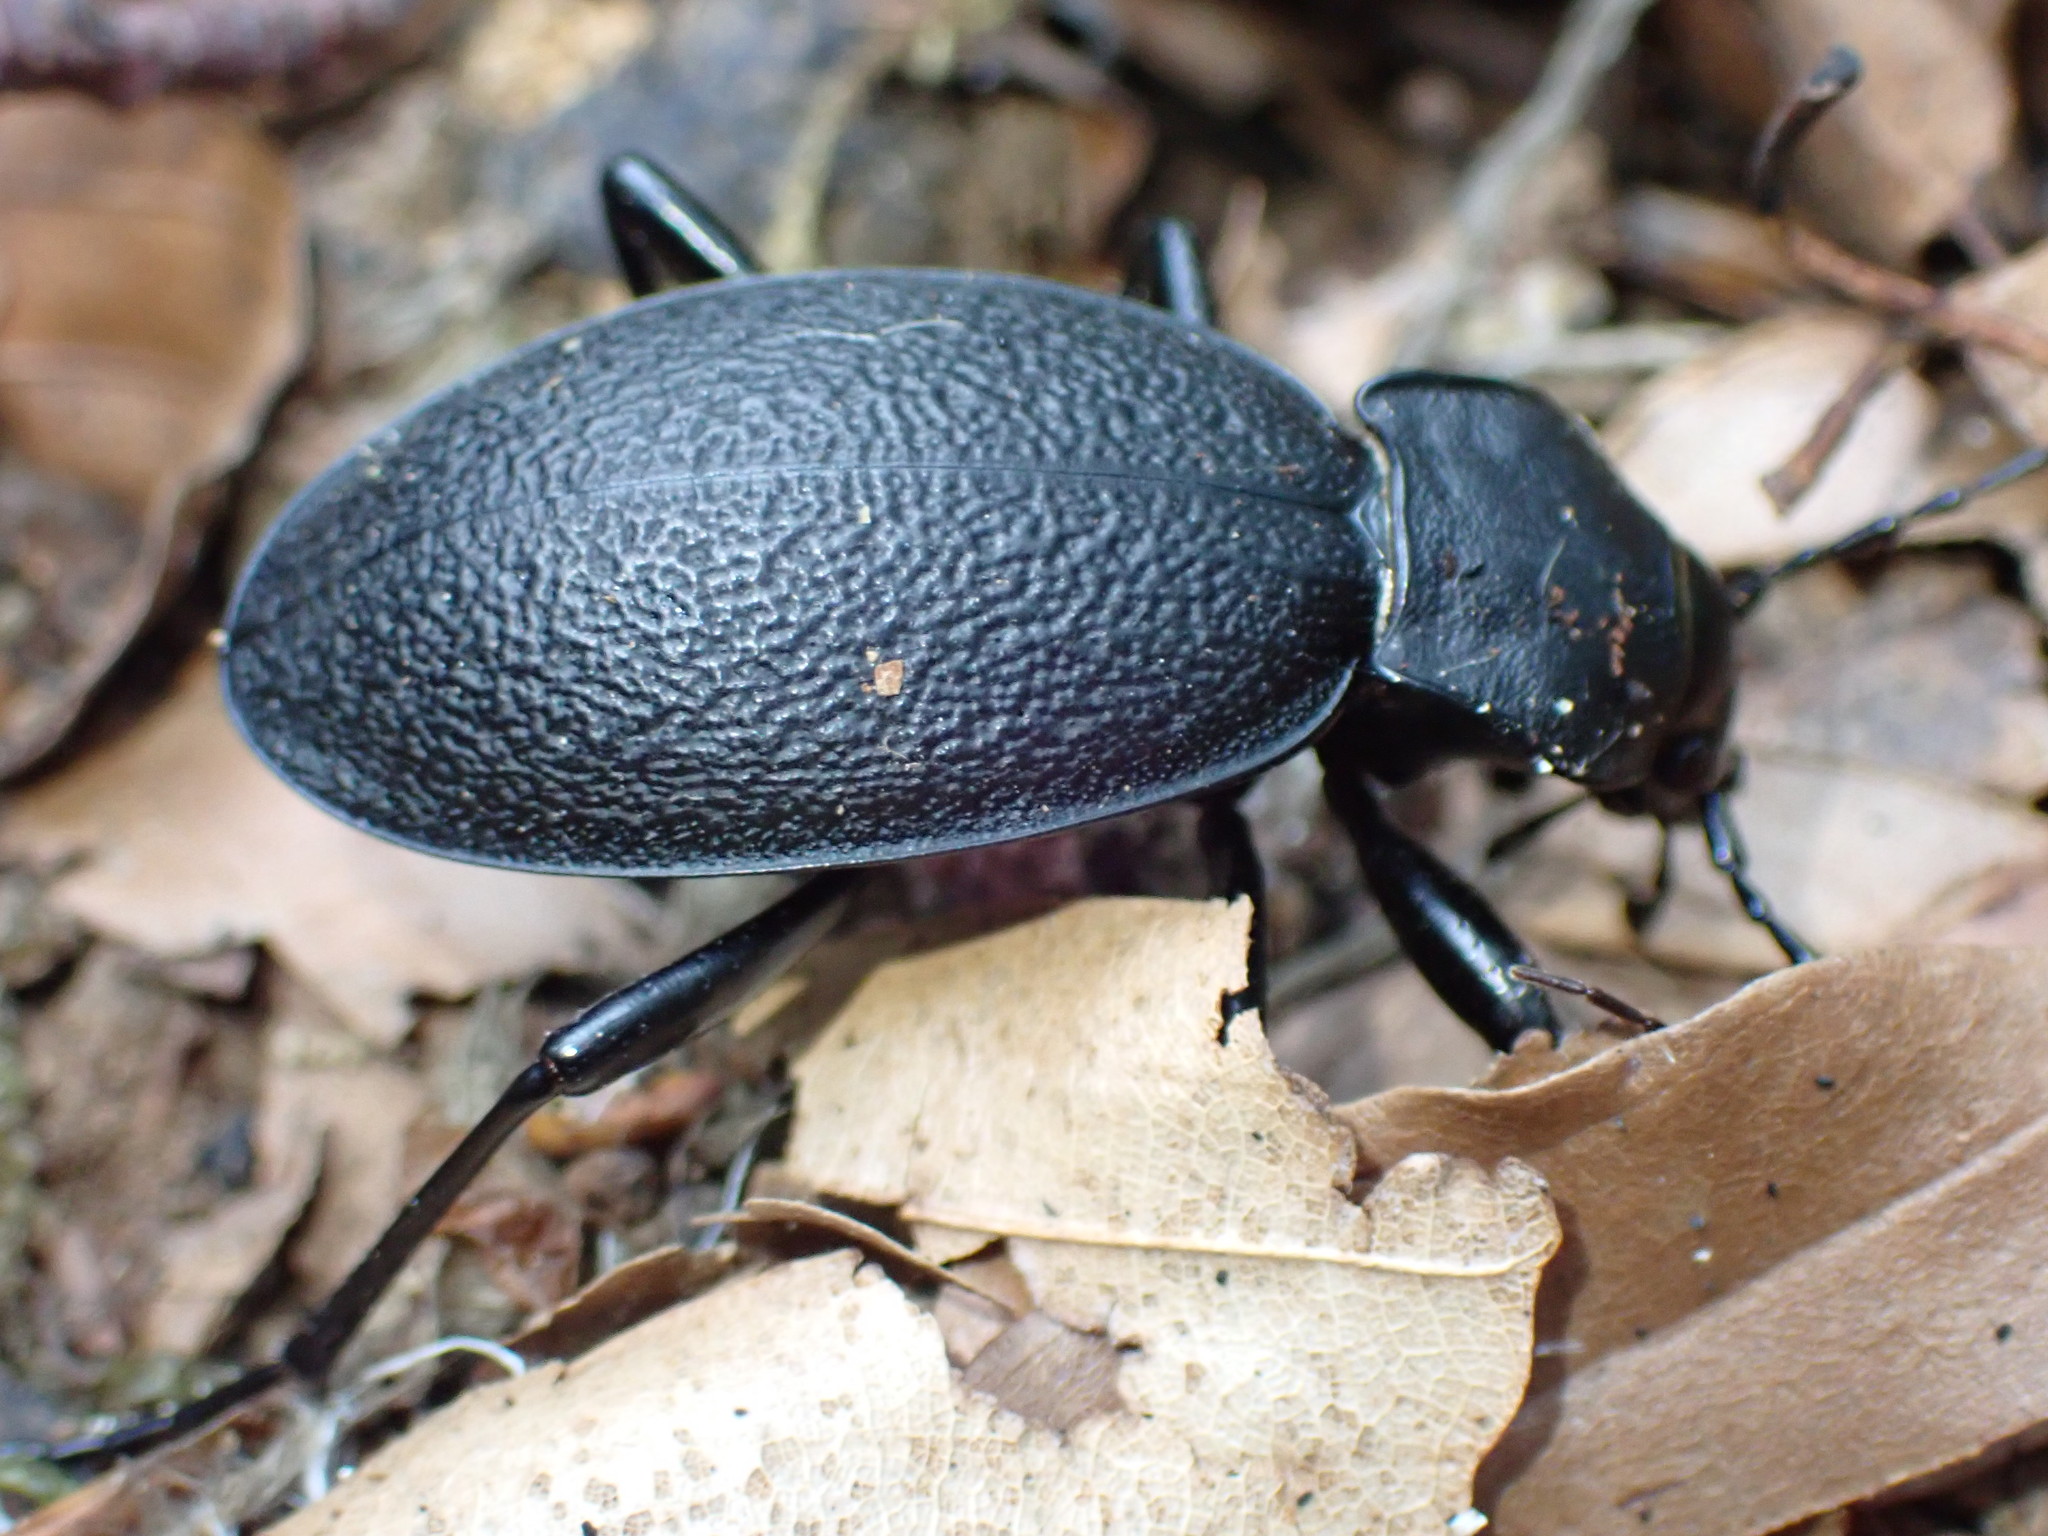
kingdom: Animalia
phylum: Arthropoda
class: Insecta
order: Coleoptera
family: Carabidae
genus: Carabus
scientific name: Carabus coriaceus
